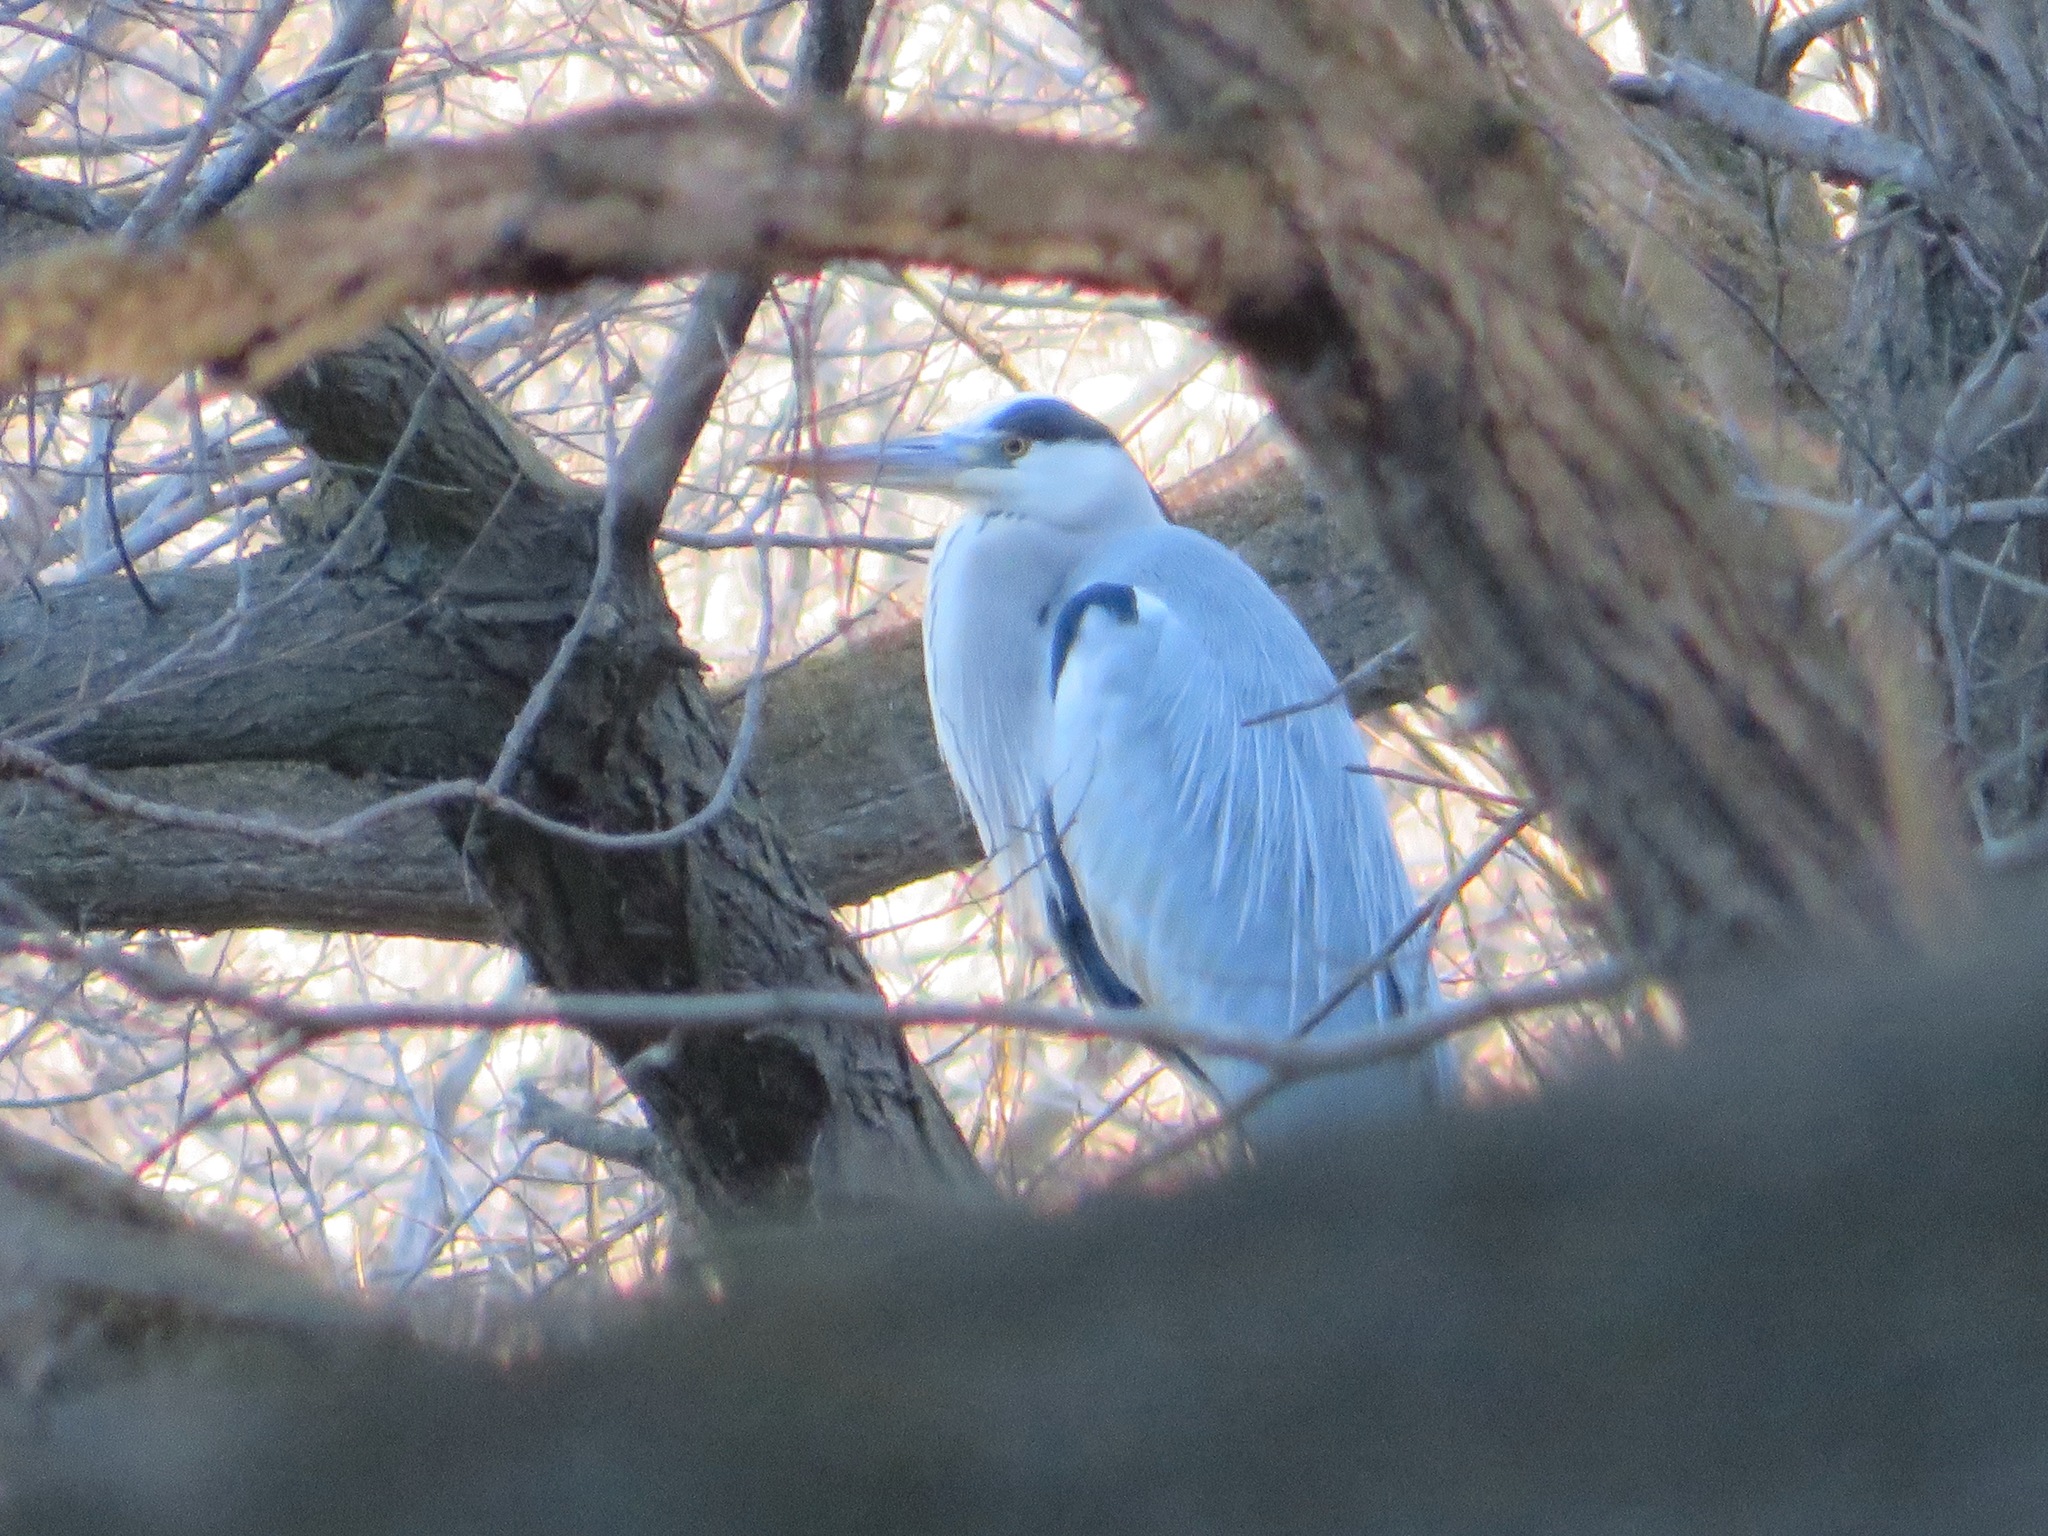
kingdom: Animalia
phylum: Chordata
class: Aves
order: Pelecaniformes
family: Ardeidae
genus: Ardea
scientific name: Ardea cinerea
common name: Grey heron
